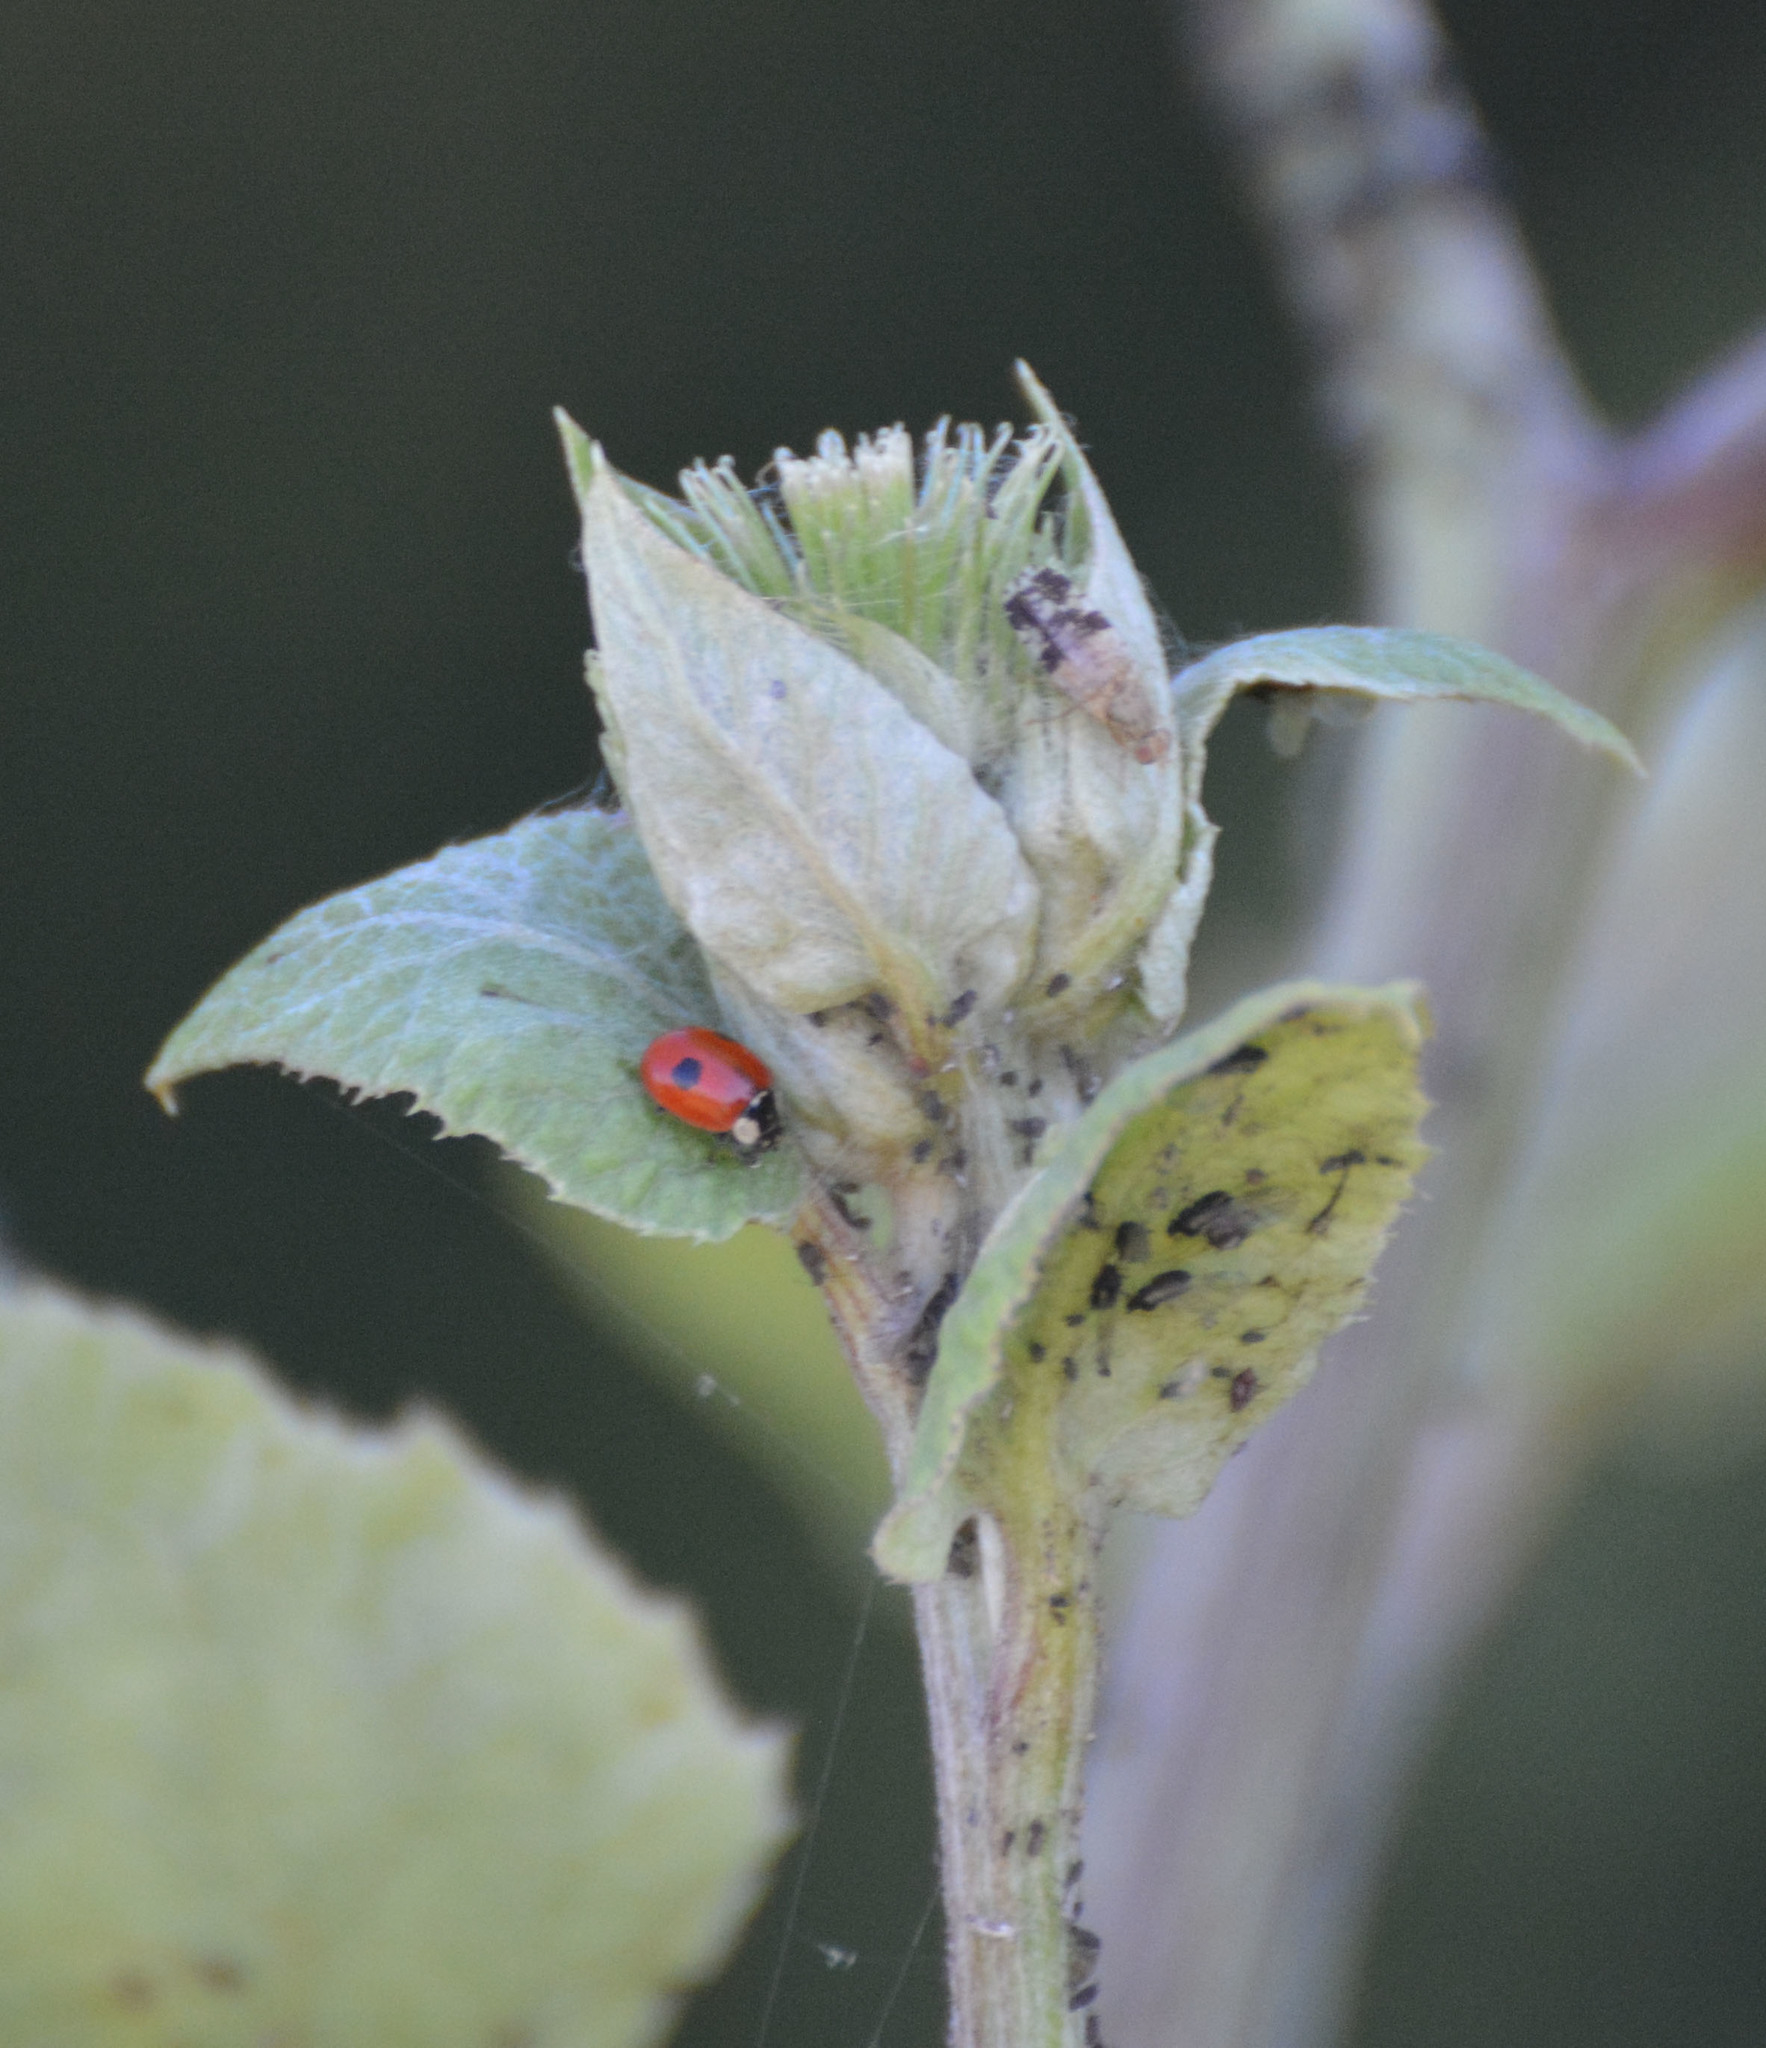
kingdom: Animalia
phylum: Arthropoda
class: Insecta
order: Coleoptera
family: Coccinellidae
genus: Adalia
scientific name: Adalia bipunctata
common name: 2-spot ladybird
